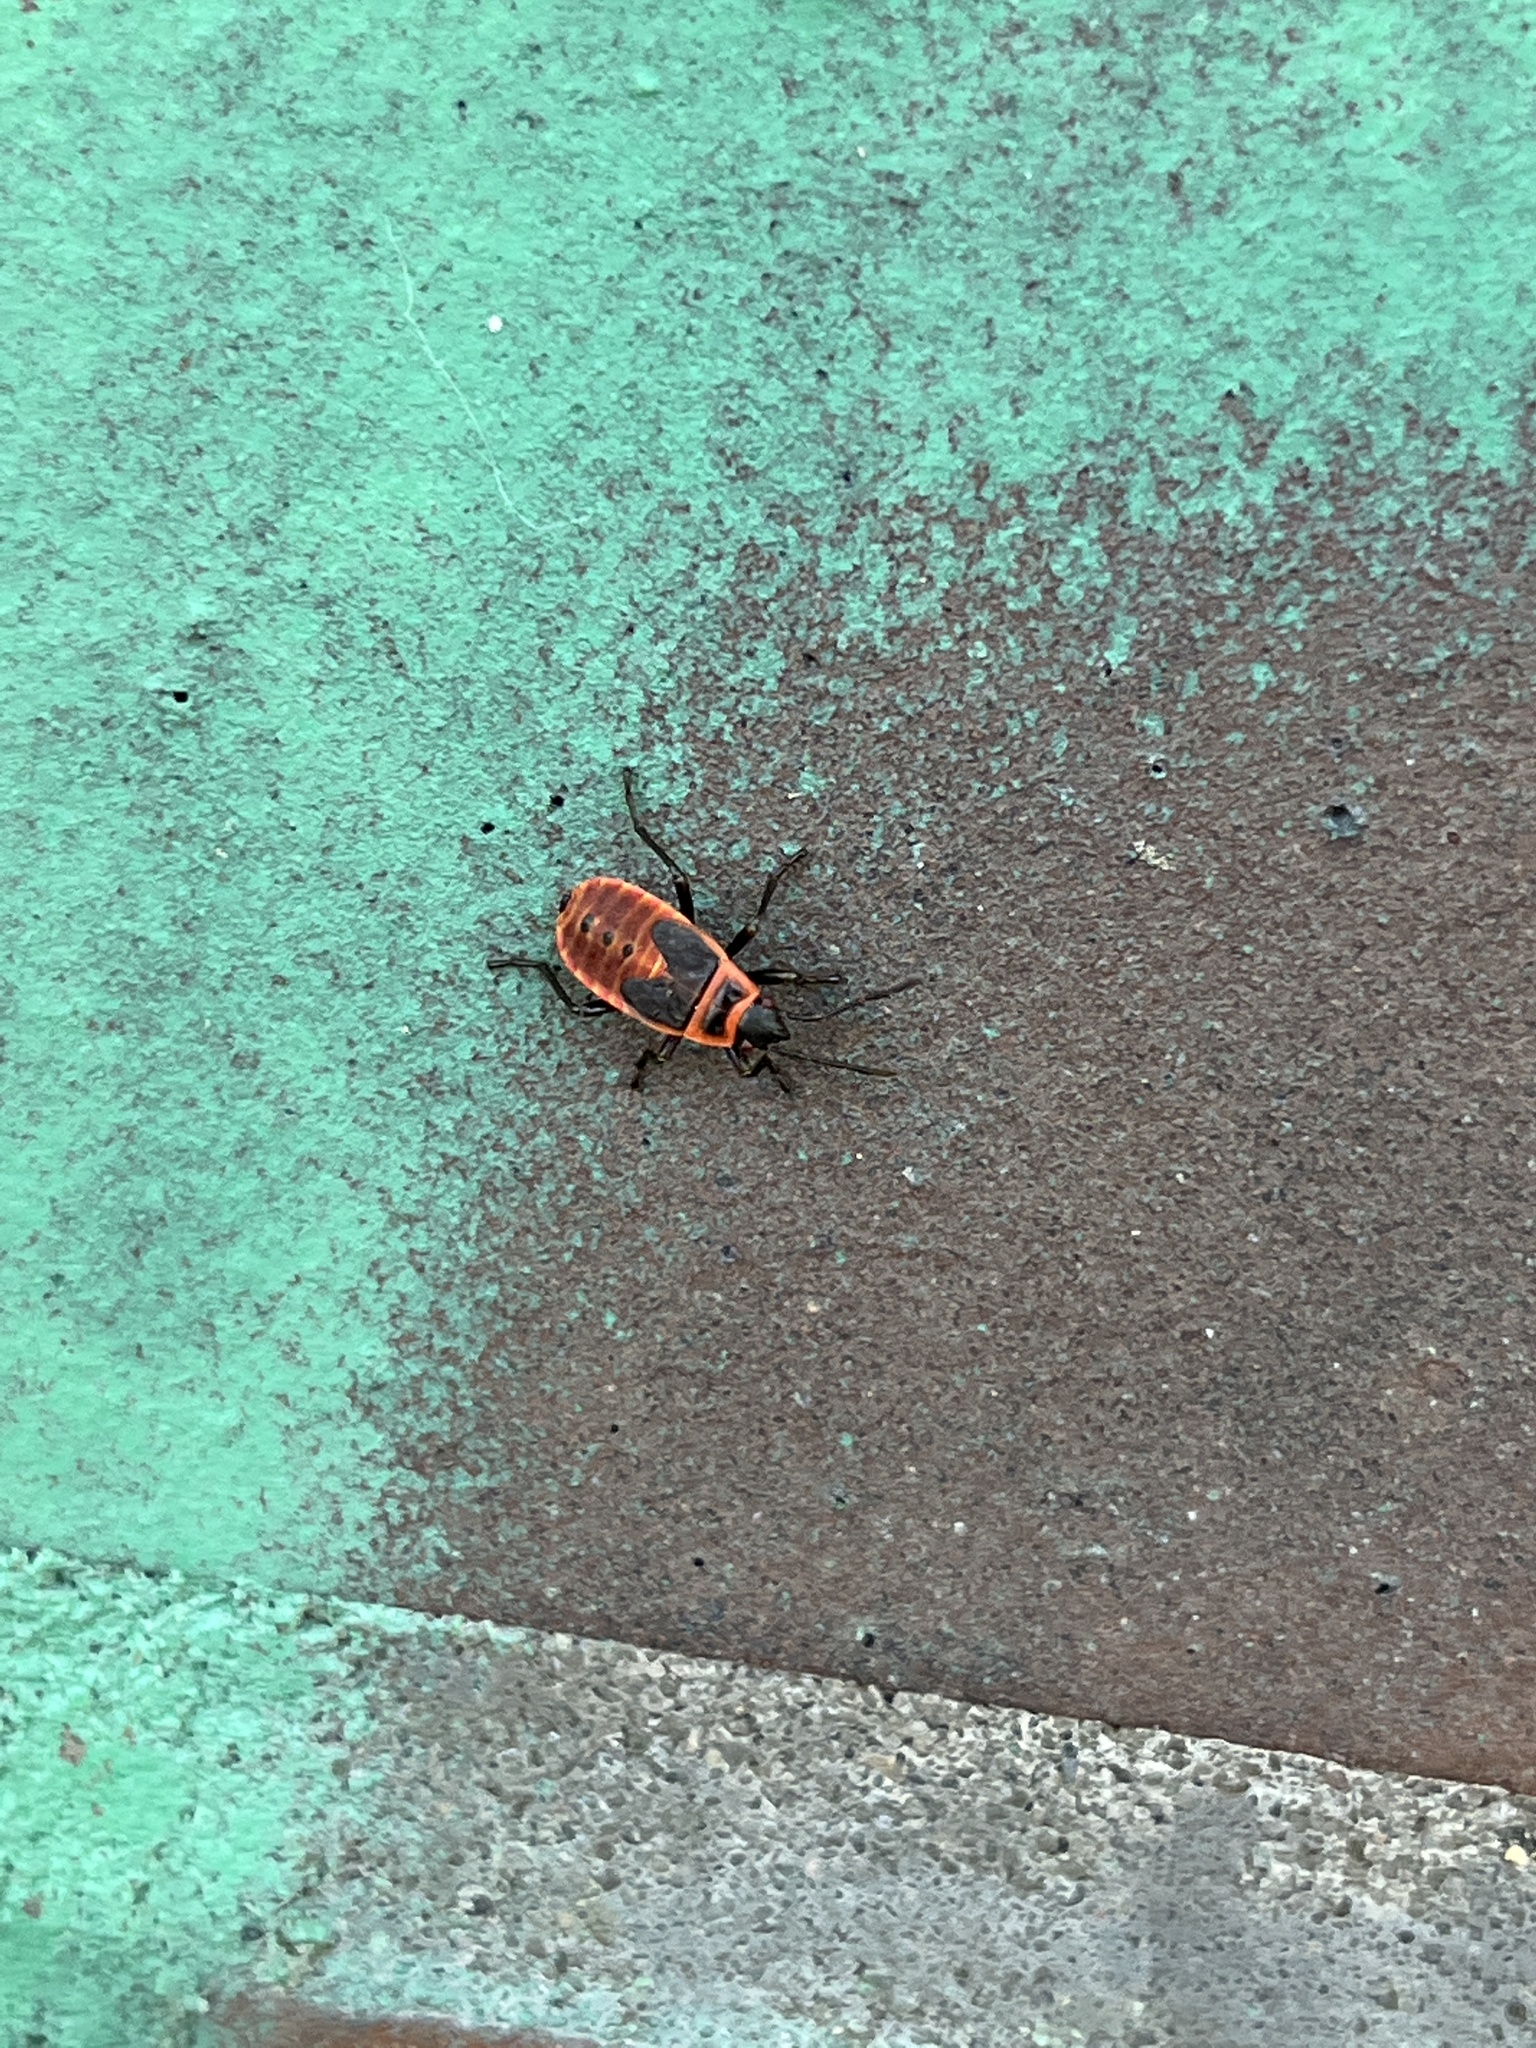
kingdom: Animalia
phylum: Arthropoda
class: Insecta
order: Hemiptera
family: Pyrrhocoridae
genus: Pyrrhocoris
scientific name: Pyrrhocoris apterus
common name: Firebug
